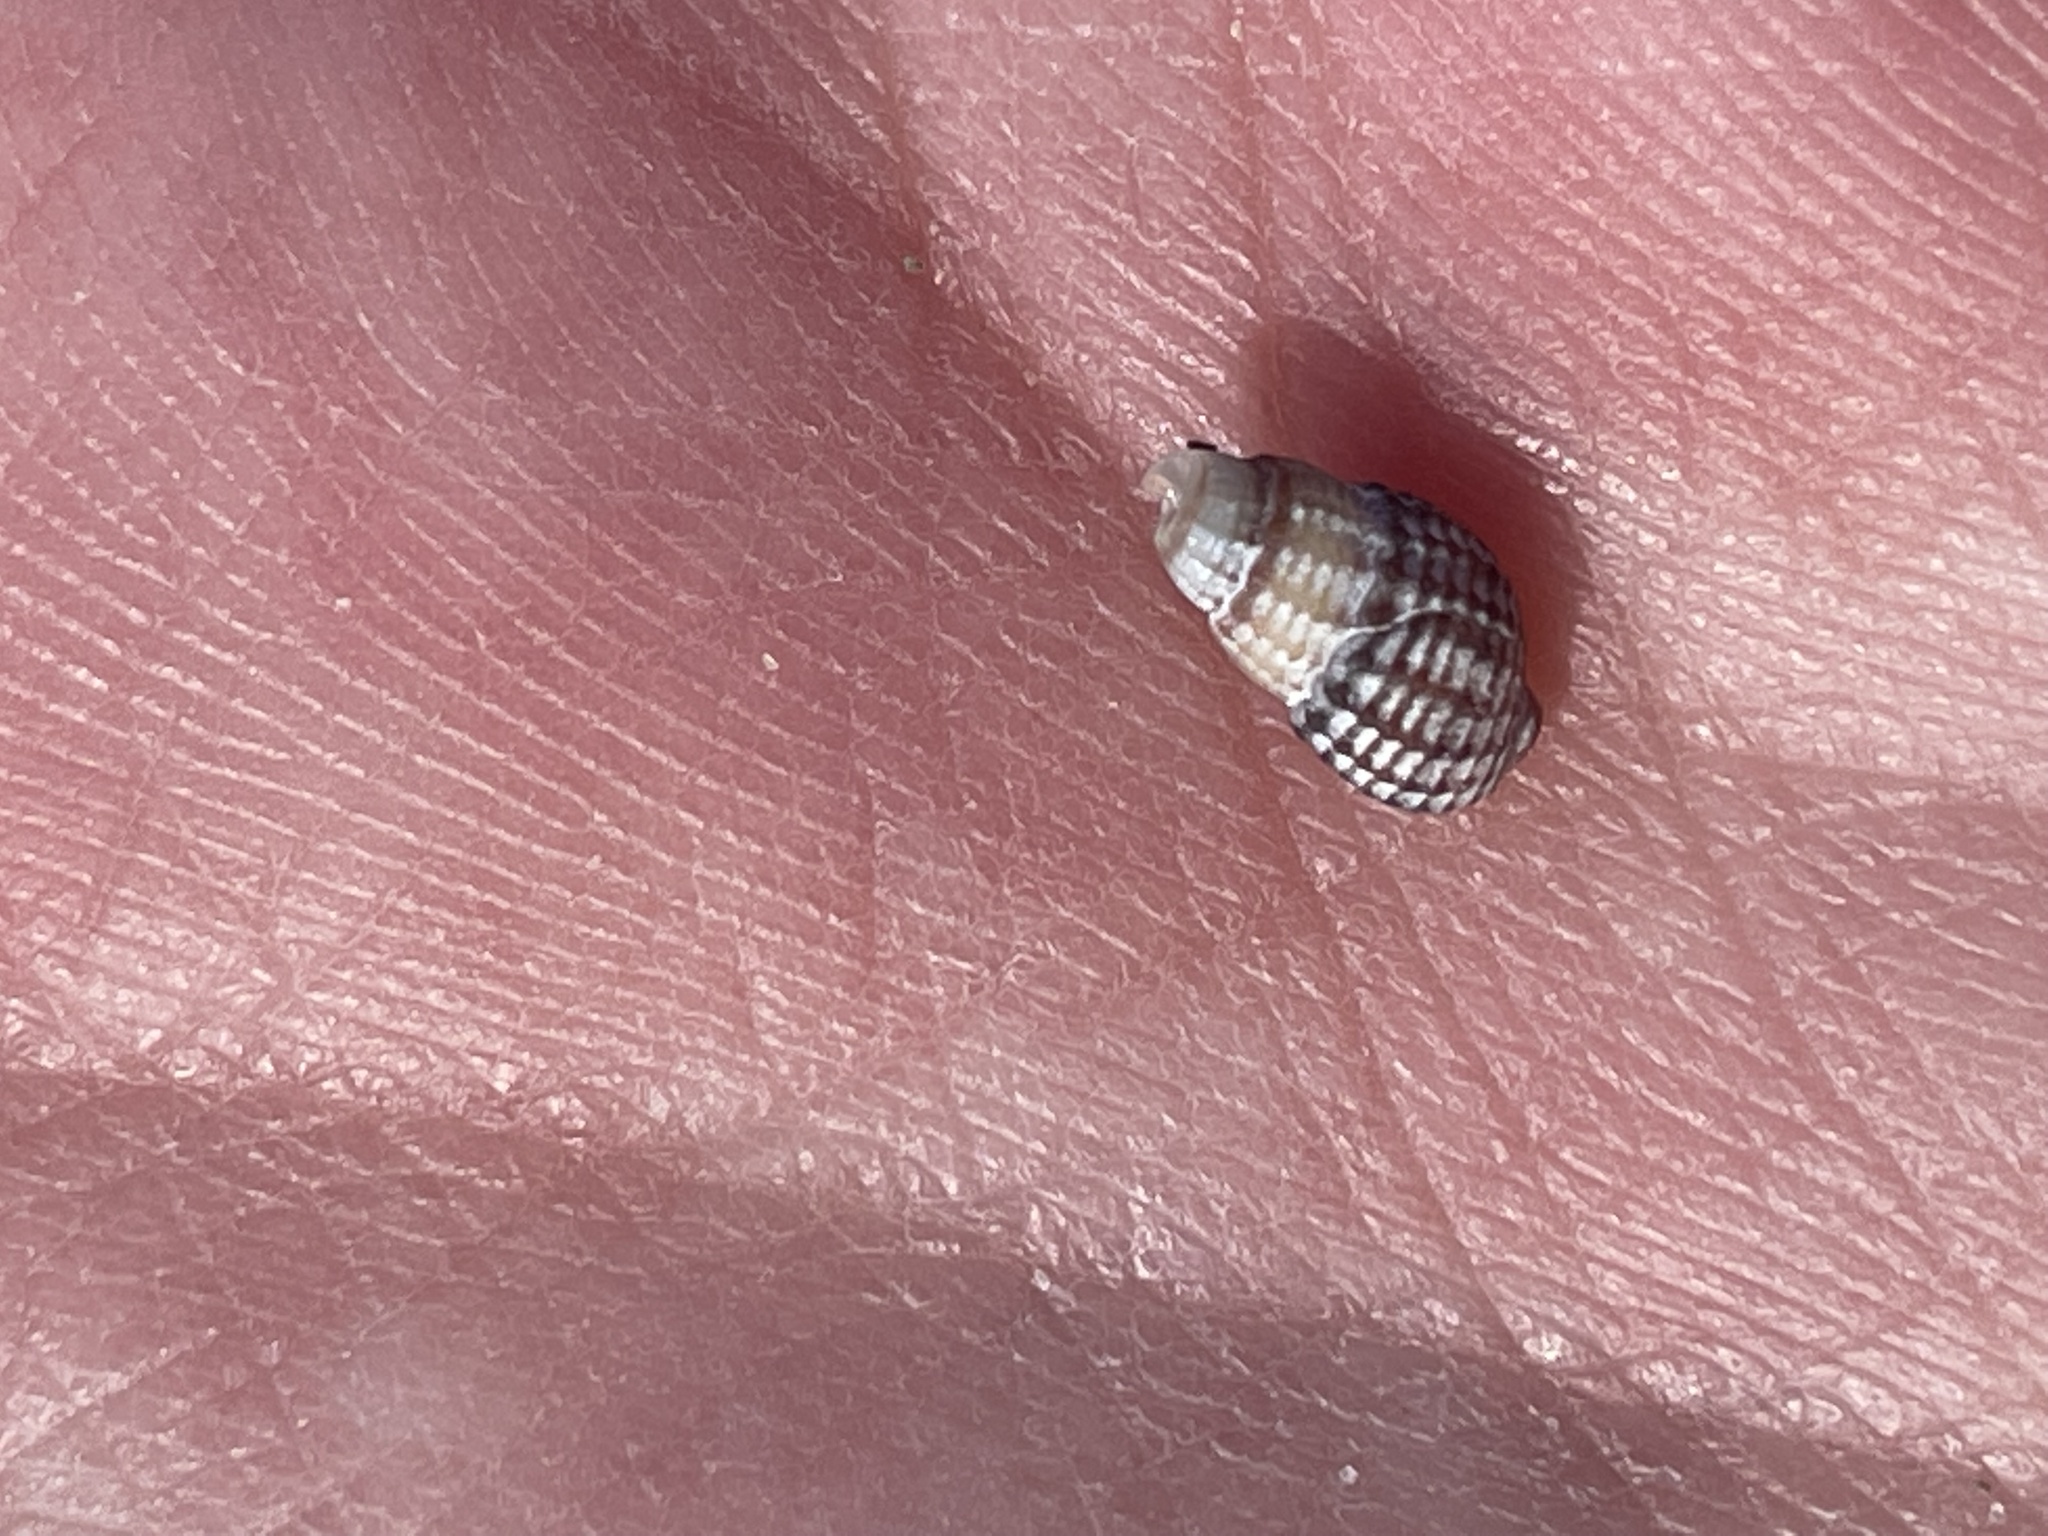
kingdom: Animalia
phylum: Mollusca
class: Gastropoda
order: Neogastropoda
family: Nassariidae
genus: Ilyanassa
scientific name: Ilyanassa trivittata
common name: Three-line mudsnail
